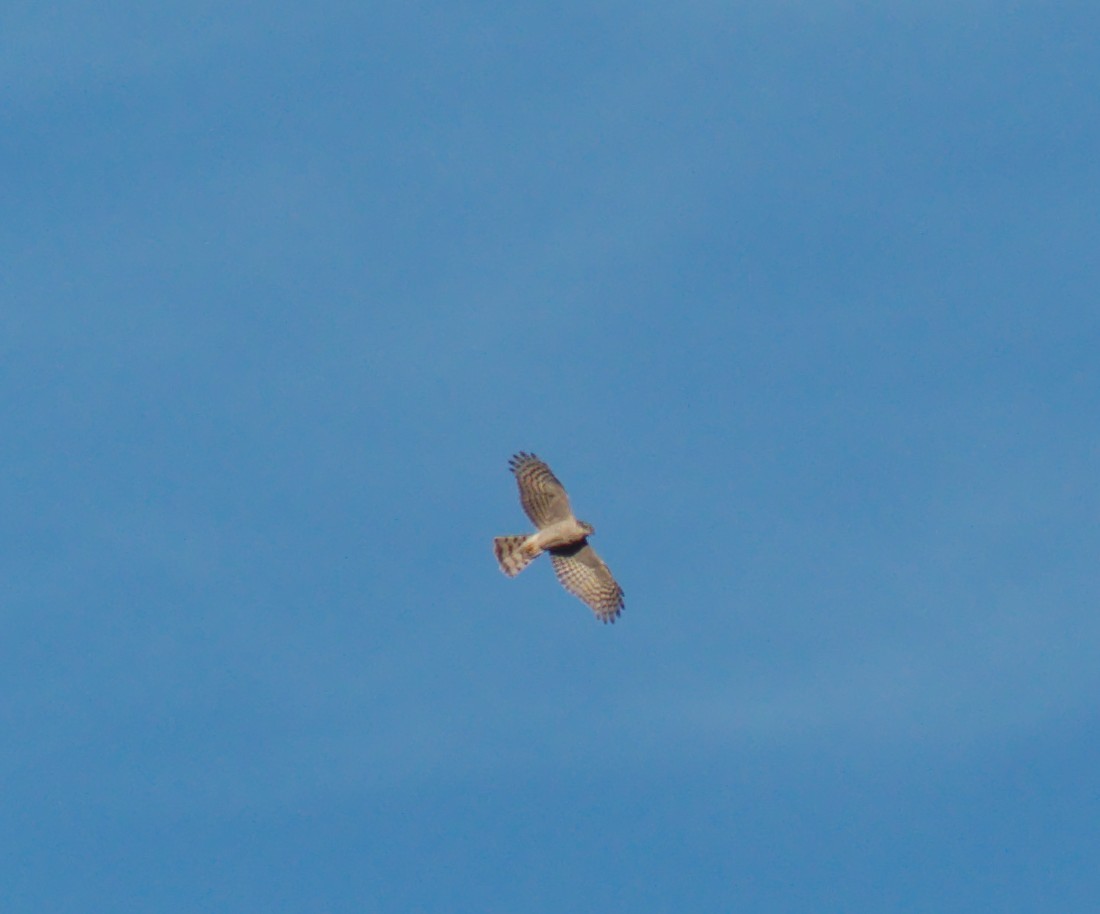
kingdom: Animalia
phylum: Chordata
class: Aves
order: Accipitriformes
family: Accipitridae
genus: Accipiter
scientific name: Accipiter nisus
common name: Eurasian sparrowhawk
